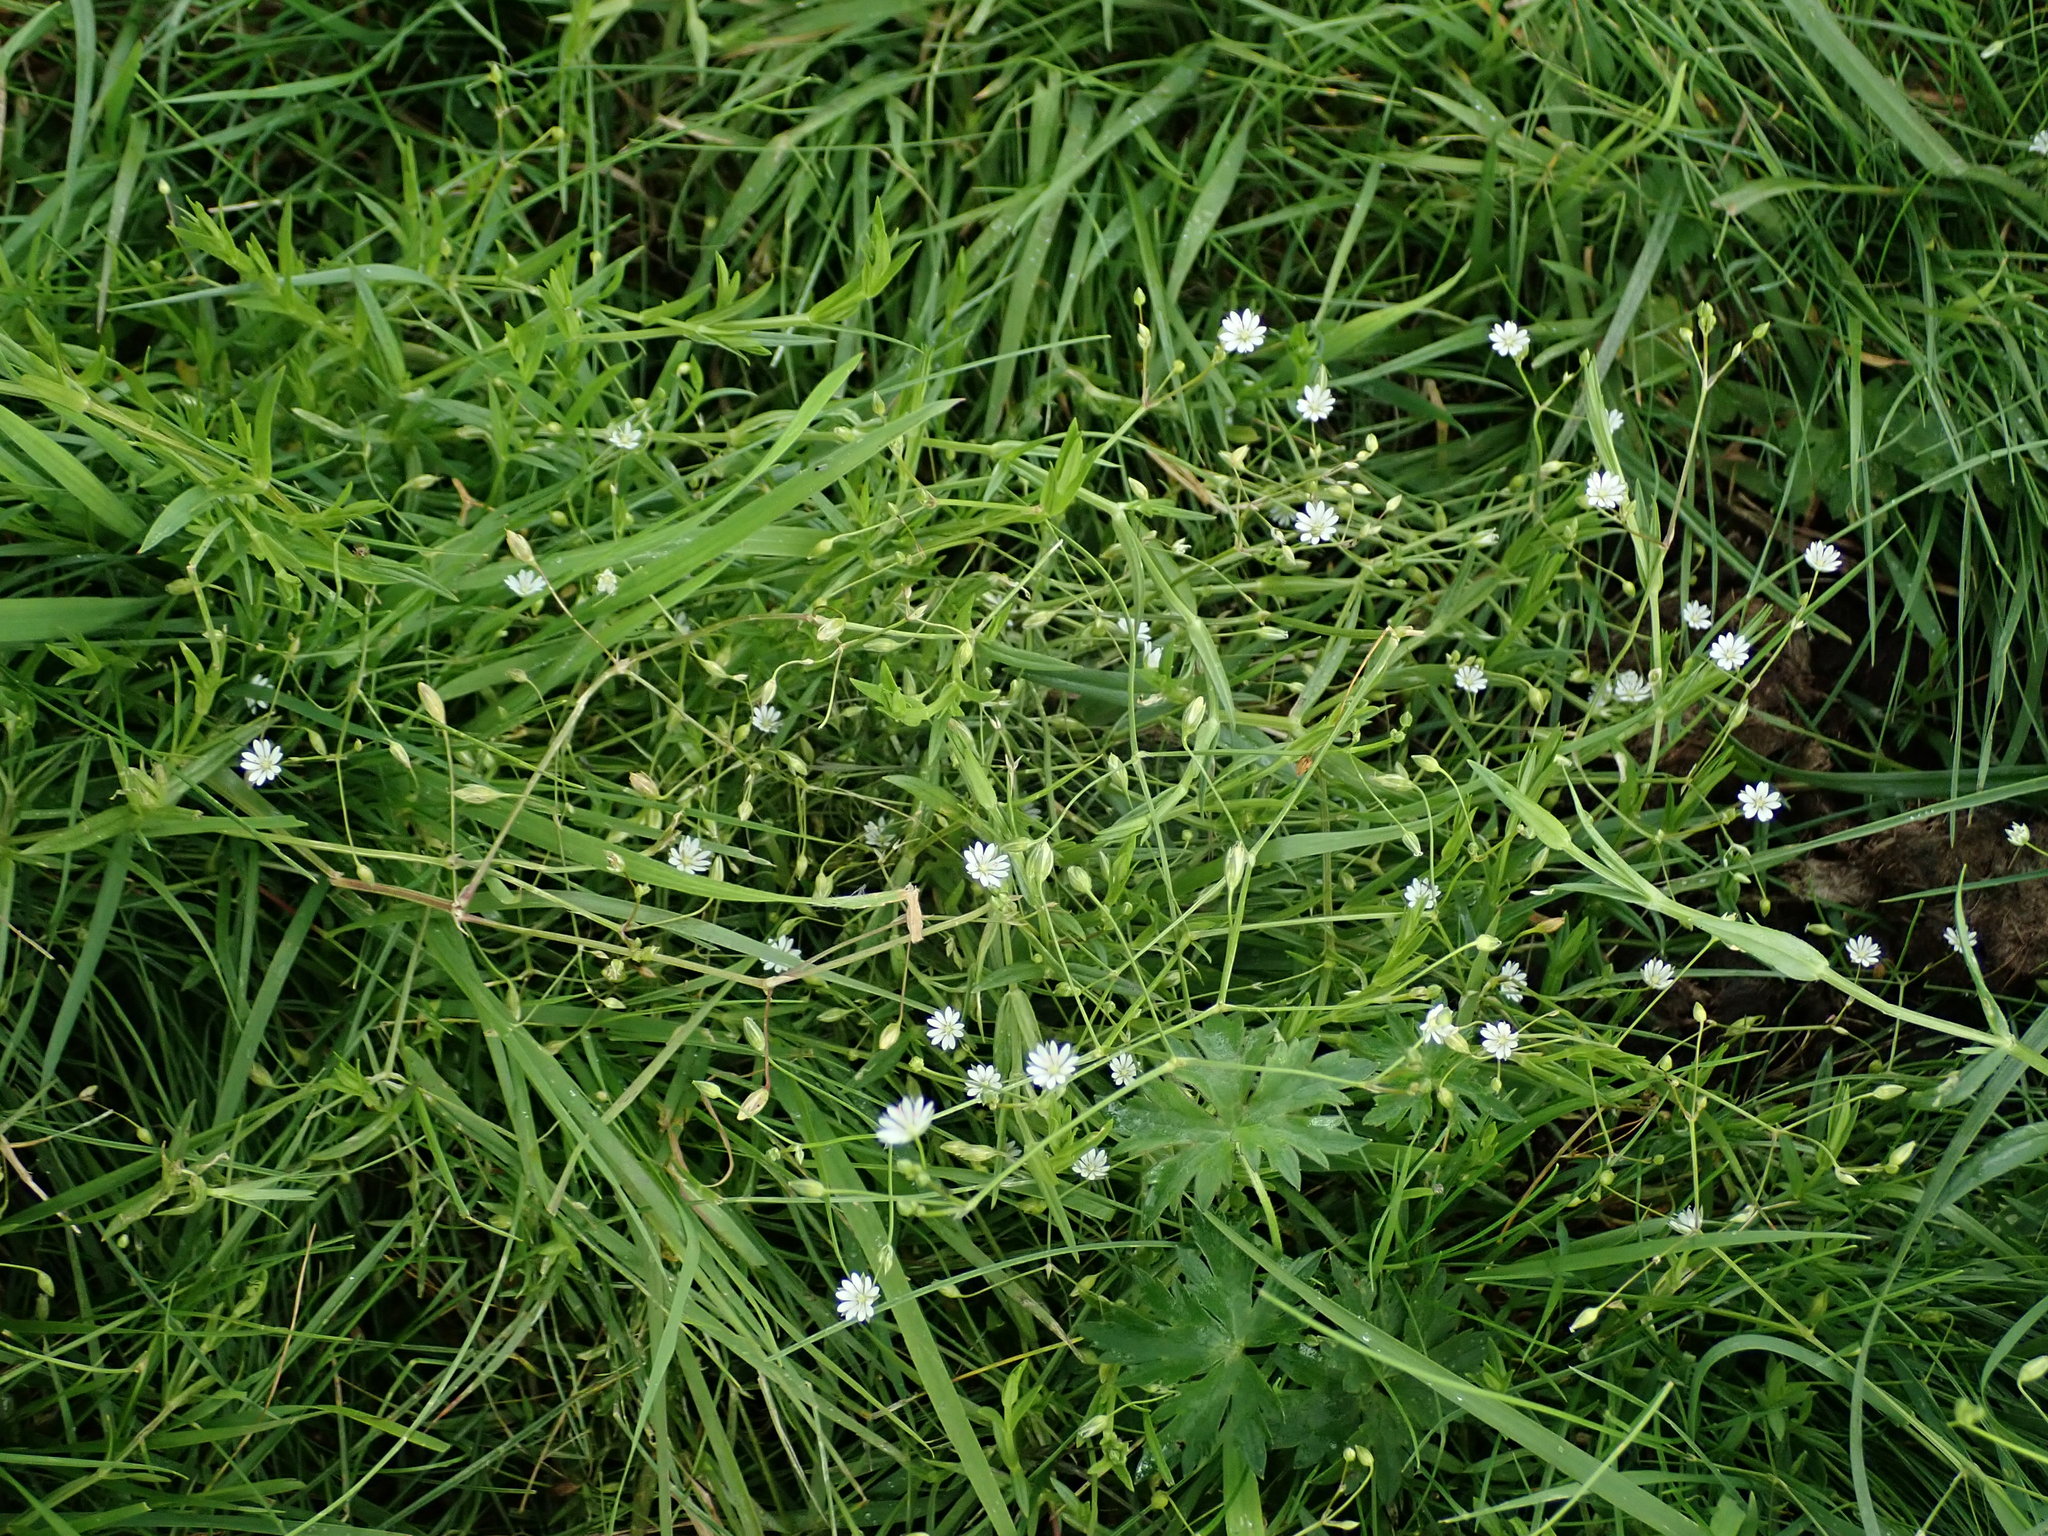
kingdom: Plantae
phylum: Tracheophyta
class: Magnoliopsida
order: Caryophyllales
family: Caryophyllaceae
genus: Stellaria
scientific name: Stellaria graminea
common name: Grass-like starwort
